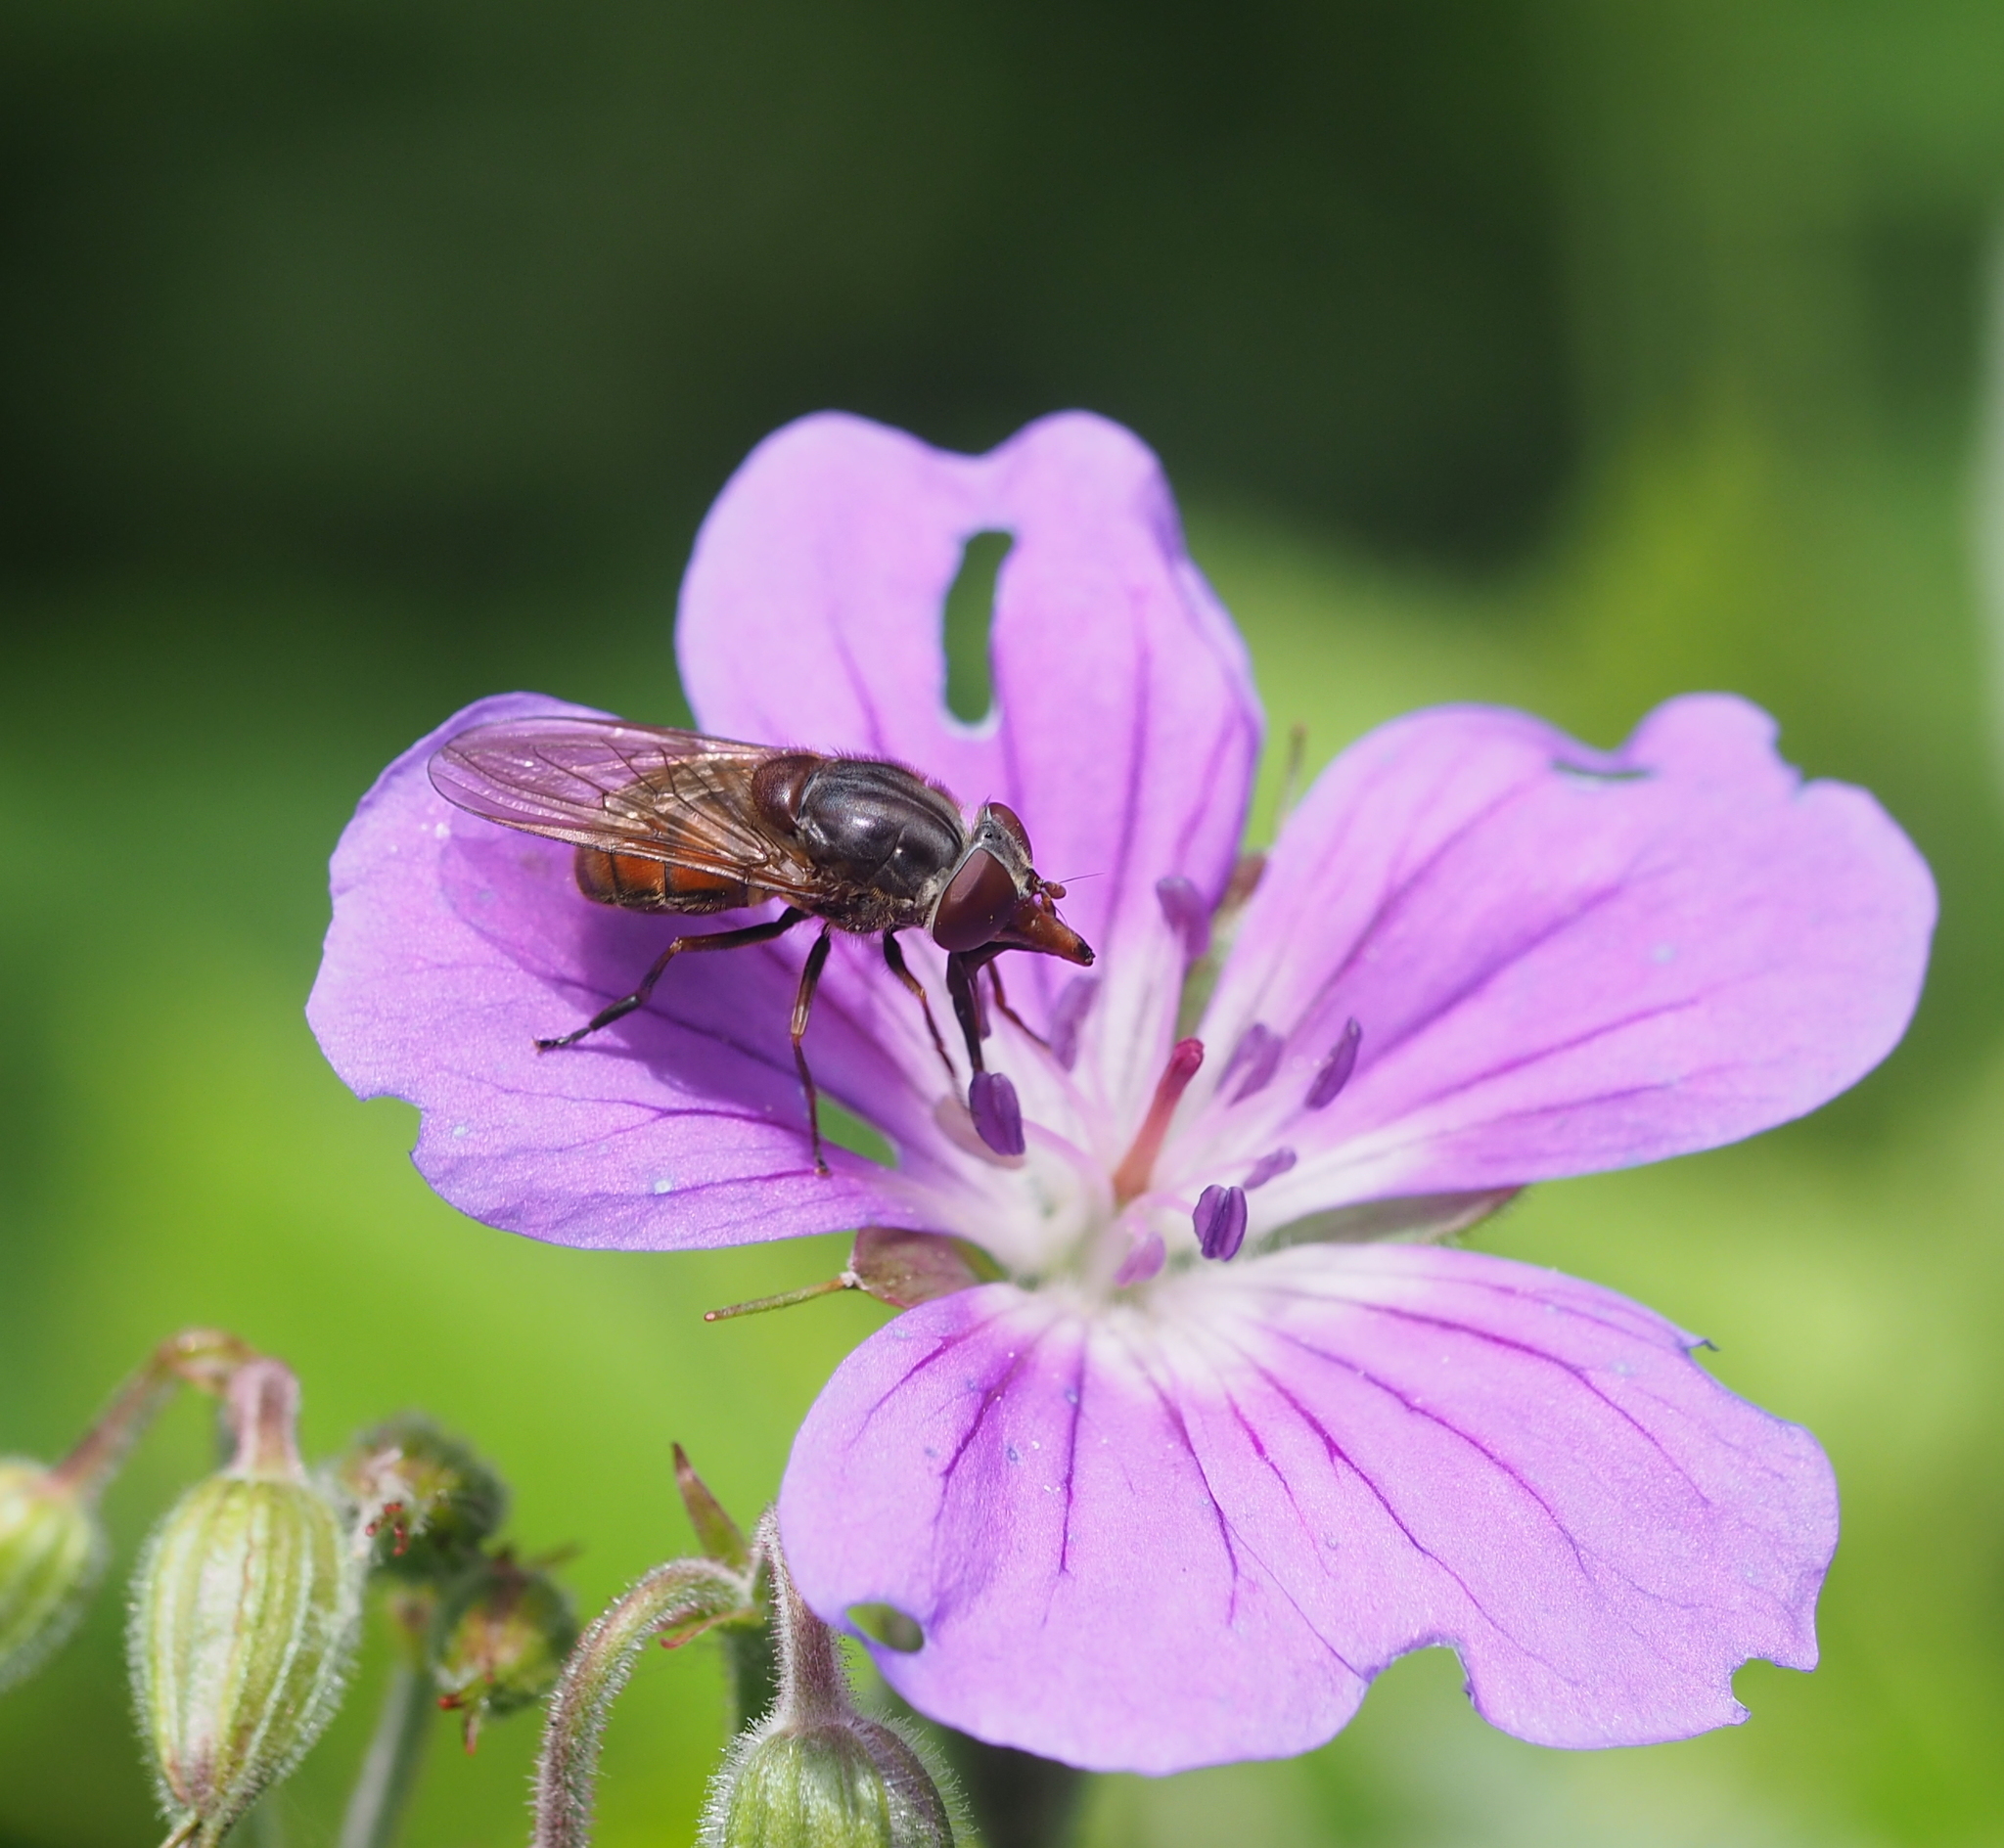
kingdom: Animalia
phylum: Arthropoda
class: Insecta
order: Diptera
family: Syrphidae
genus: Rhingia
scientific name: Rhingia campestris
